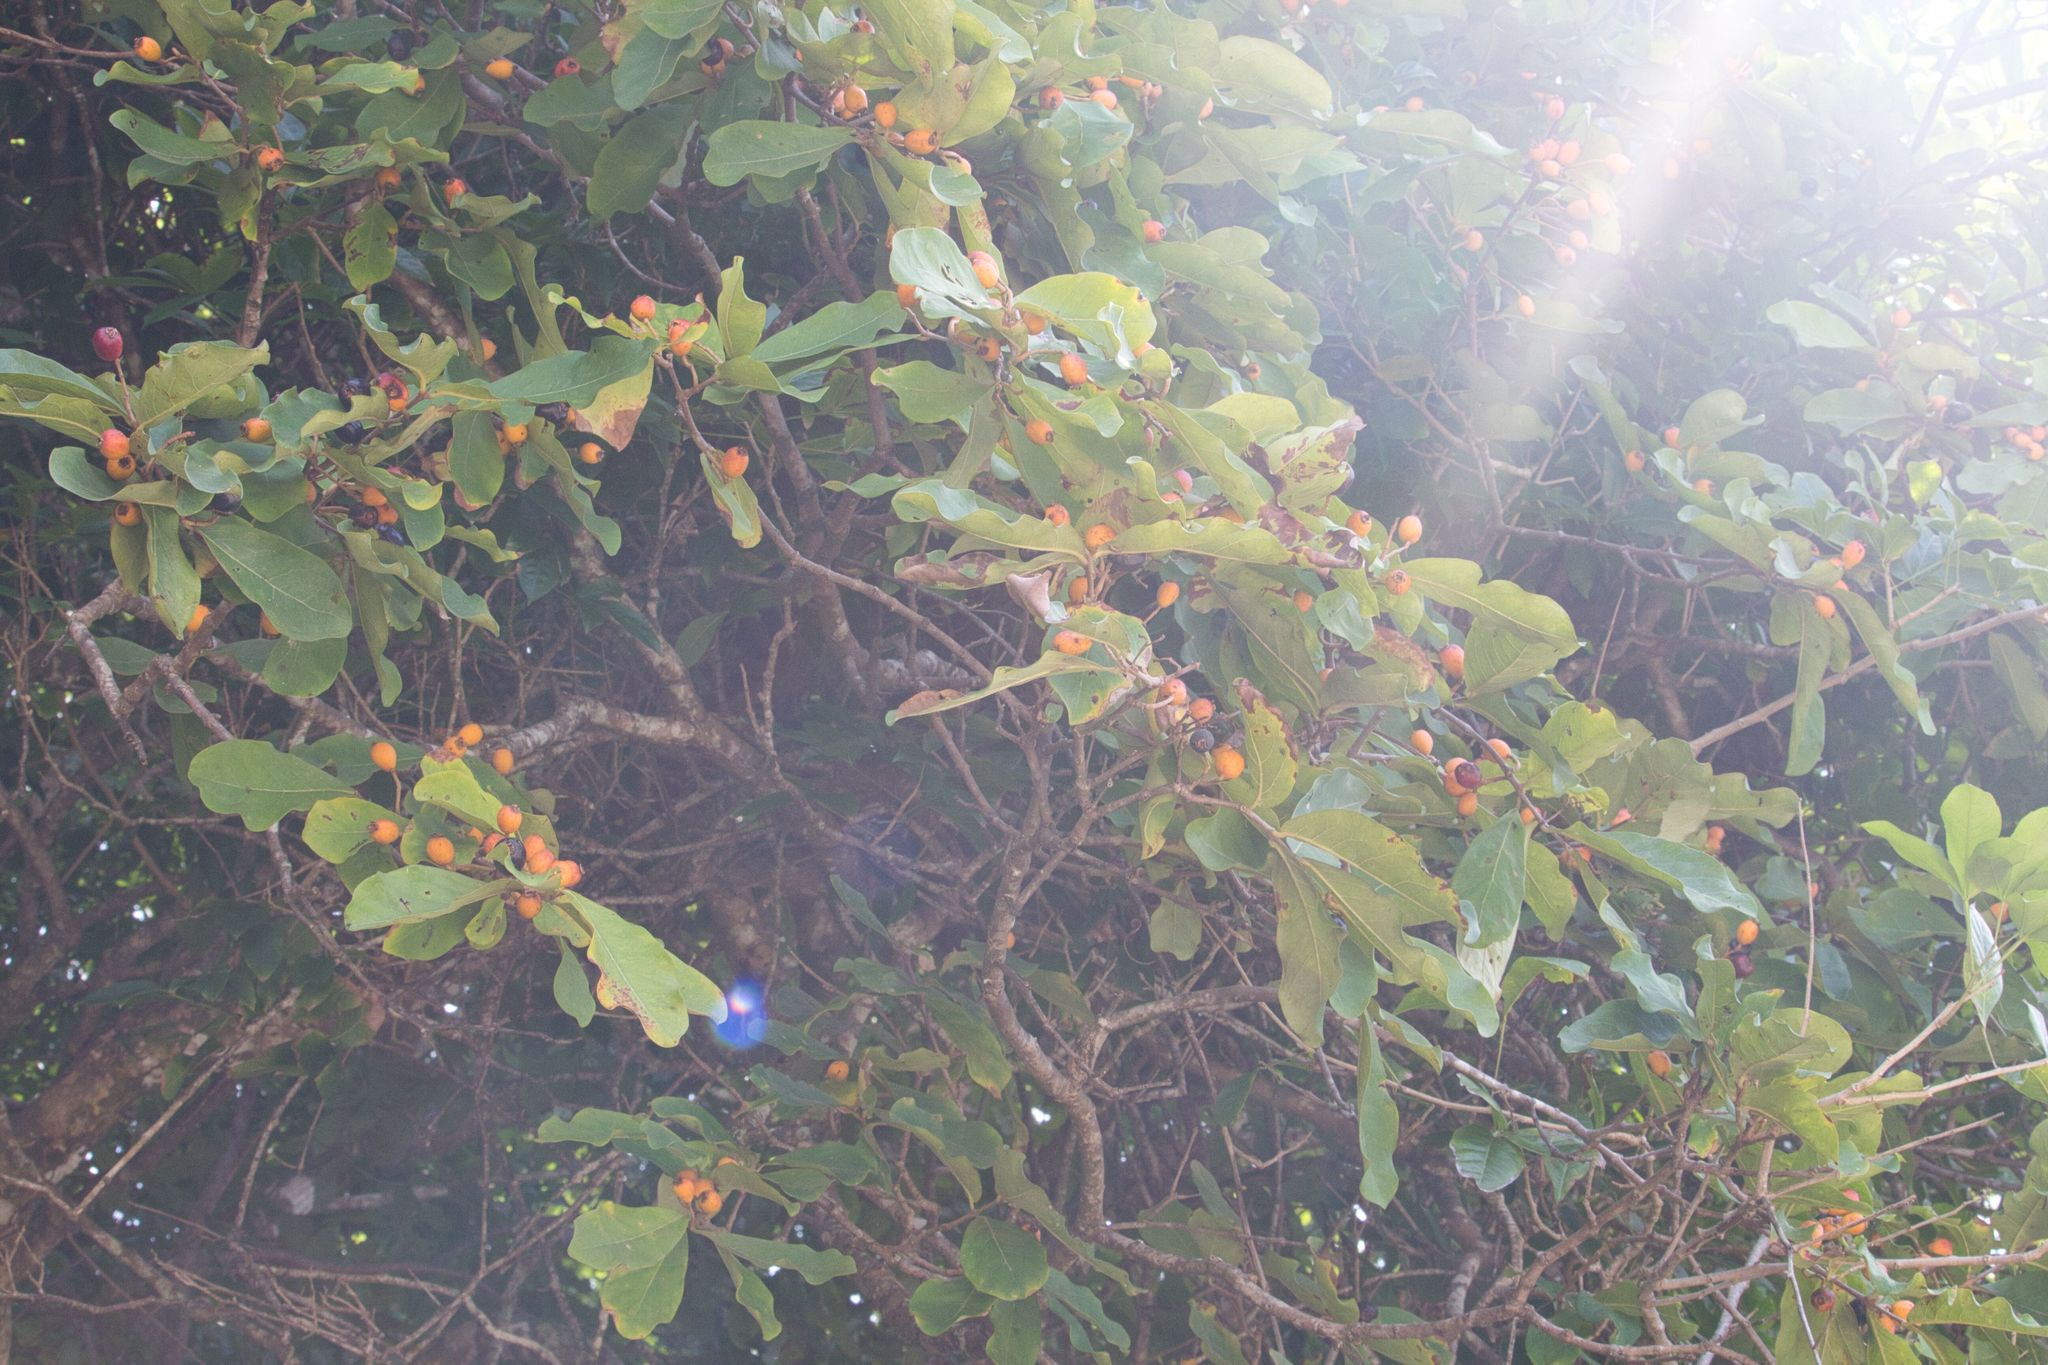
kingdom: Plantae
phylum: Tracheophyta
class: Magnoliopsida
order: Myrtales
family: Myrtaceae
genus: Eugenia
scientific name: Eugenia hiraeifolia
